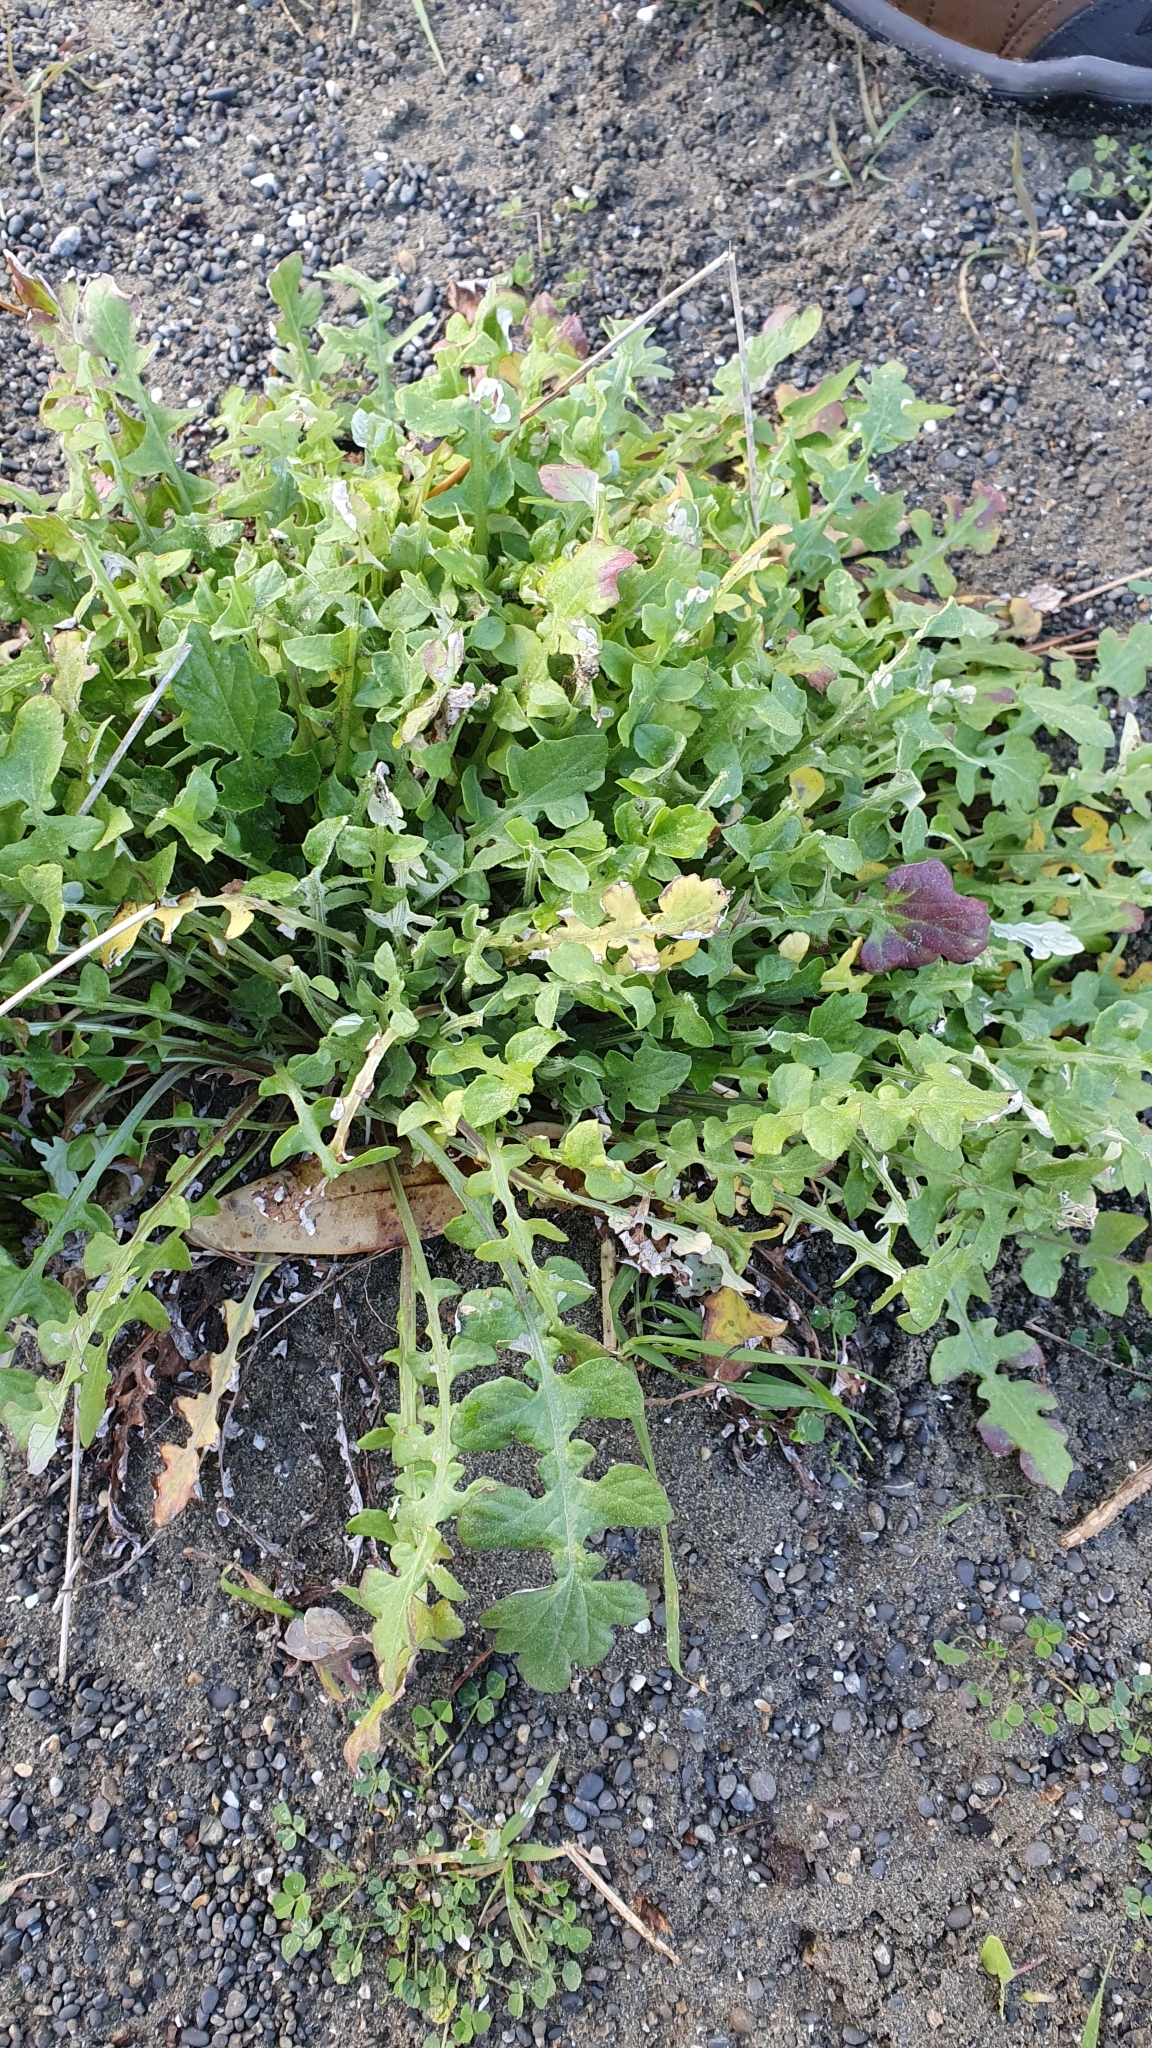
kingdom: Plantae
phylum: Tracheophyta
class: Magnoliopsida
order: Asterales
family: Asteraceae
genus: Arctotheca
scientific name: Arctotheca calendula
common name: Capeweed
